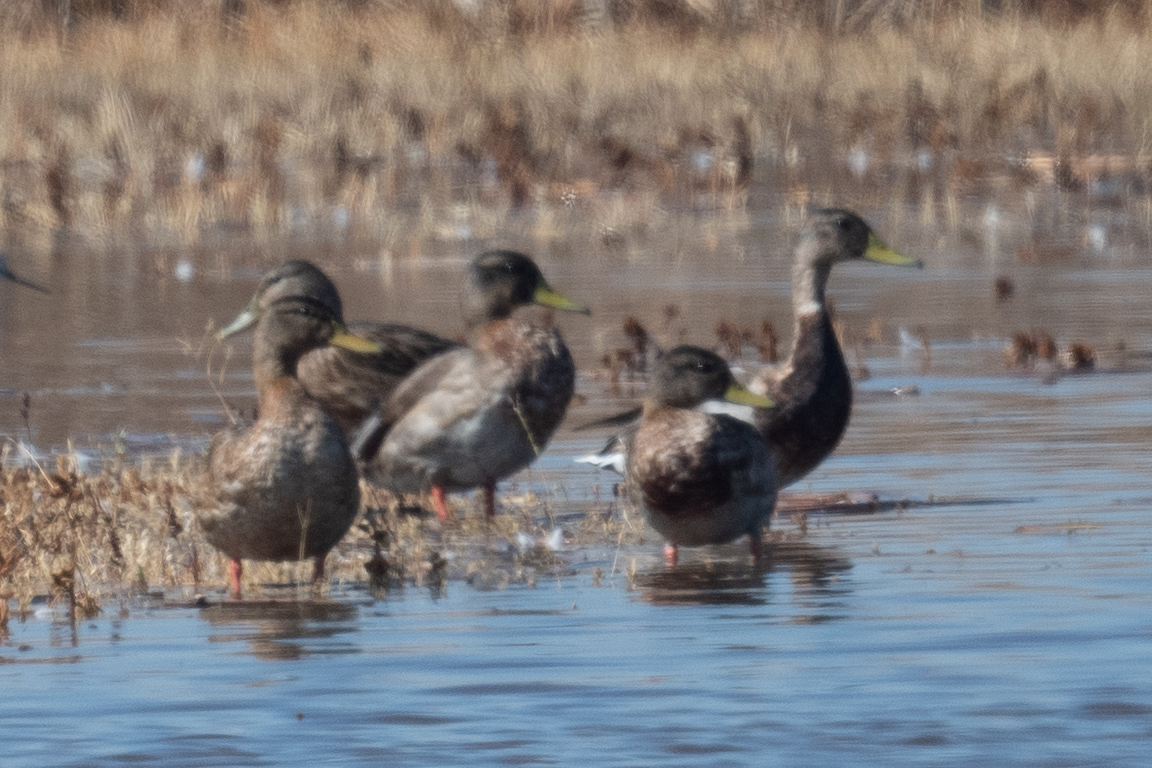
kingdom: Animalia
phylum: Chordata
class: Aves
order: Anseriformes
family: Anatidae
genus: Anas
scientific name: Anas platyrhynchos
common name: Mallard
